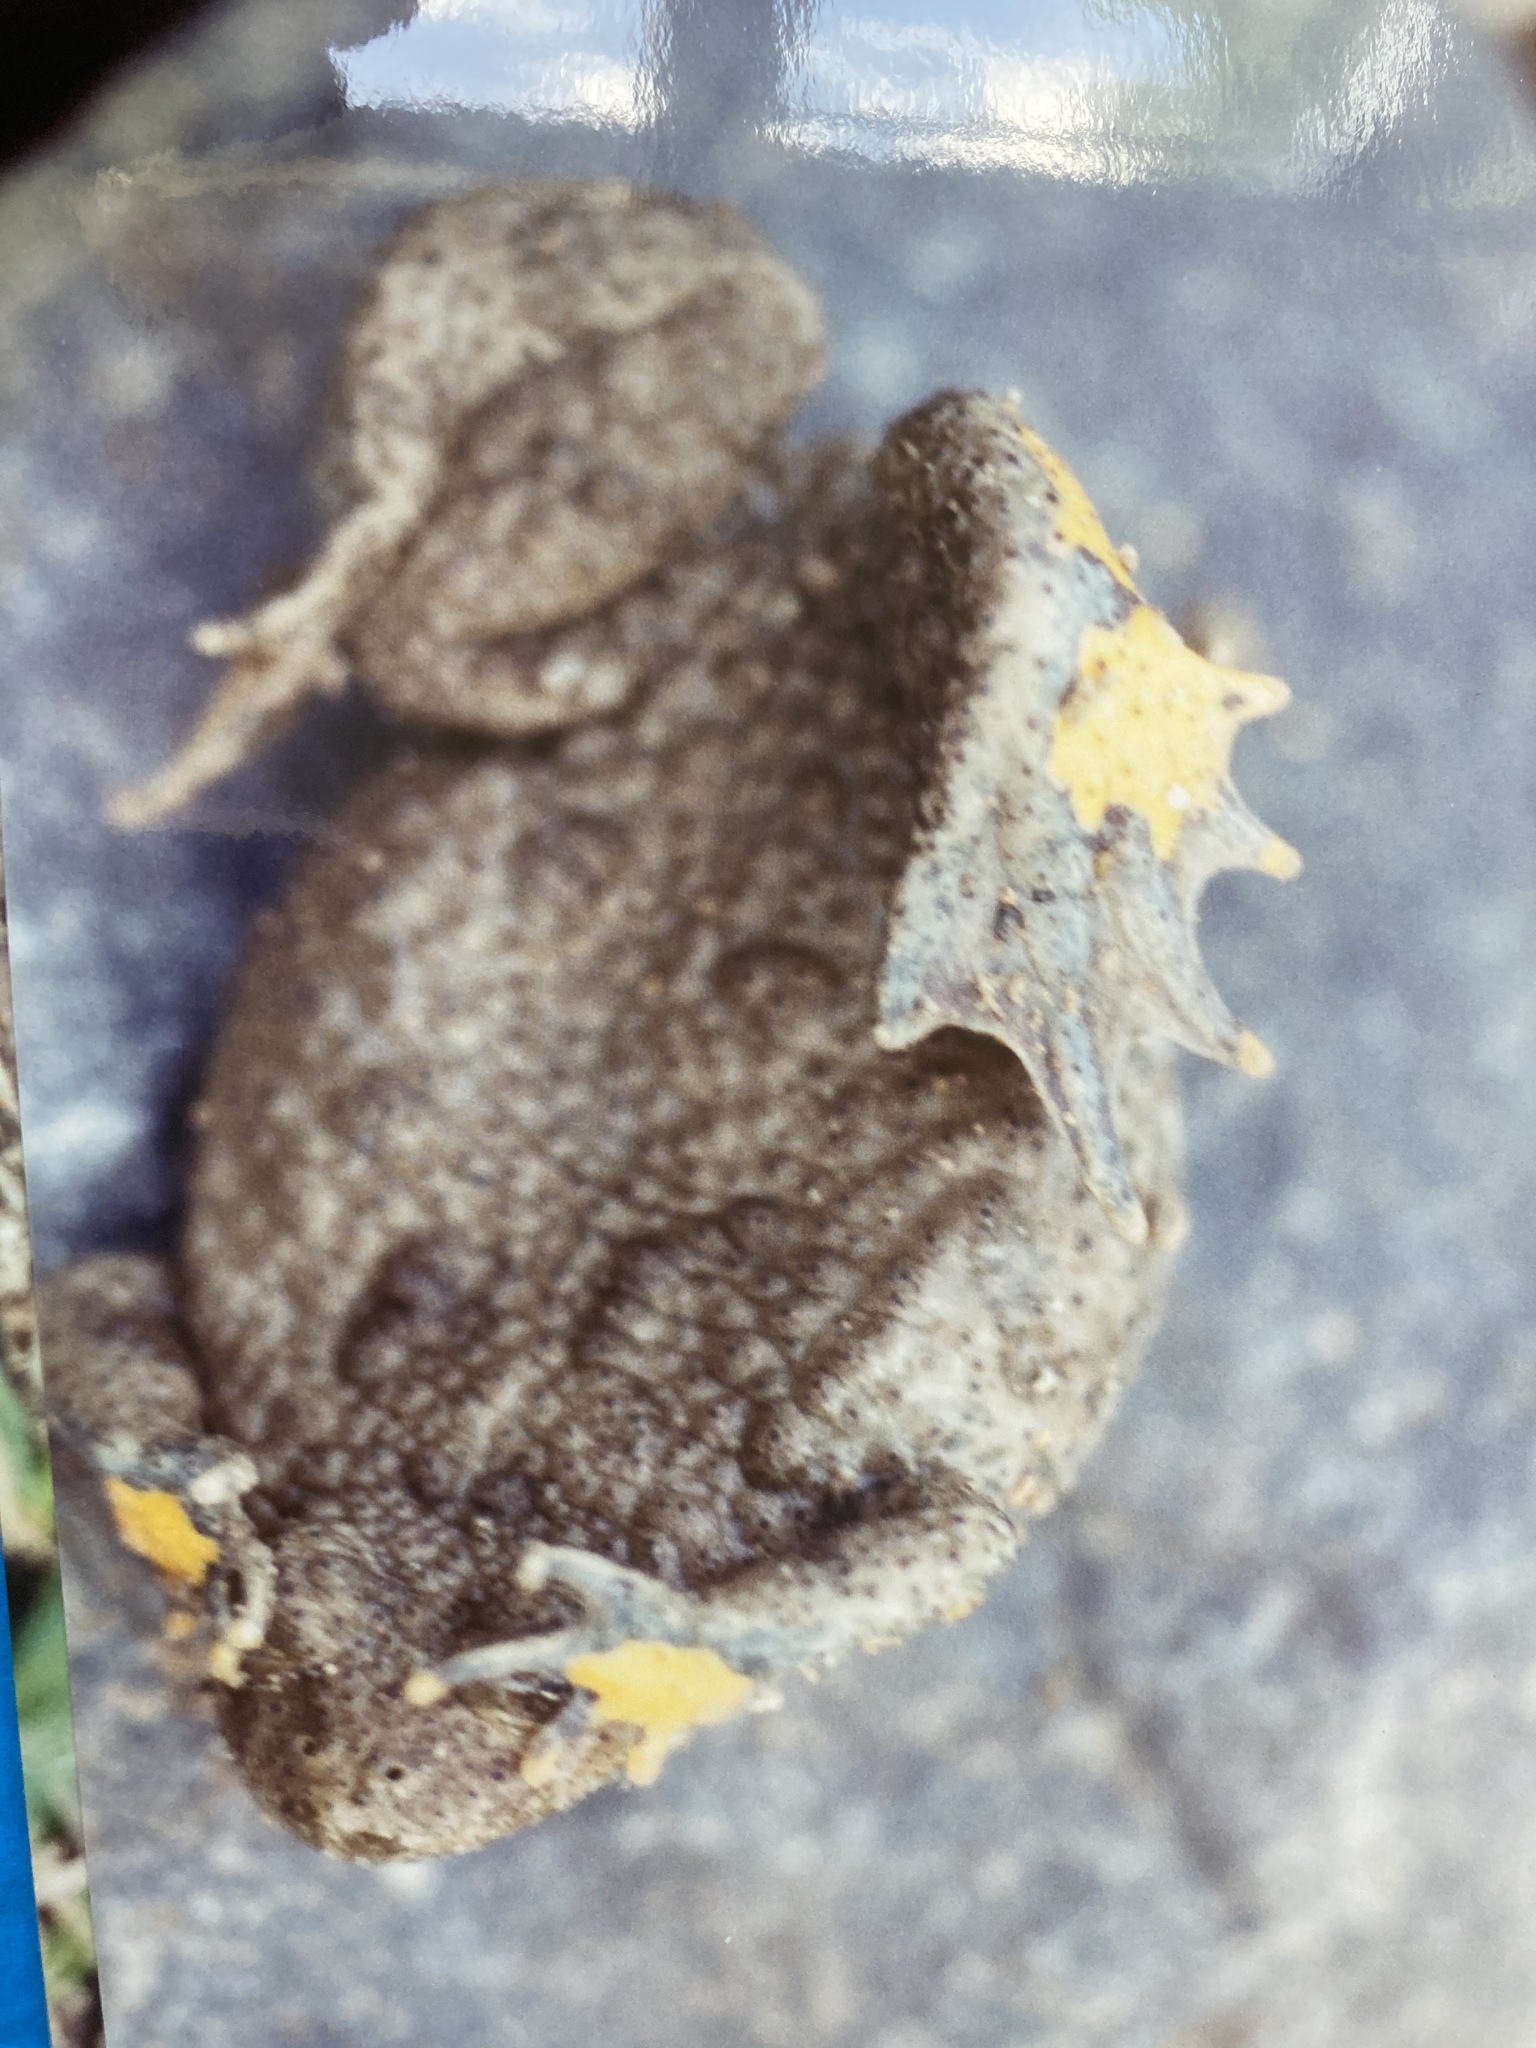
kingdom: Animalia
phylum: Chordata
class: Amphibia
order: Anura
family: Bombinatoridae
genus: Bombina
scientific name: Bombina variegata
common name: Yellow-bellied toad
